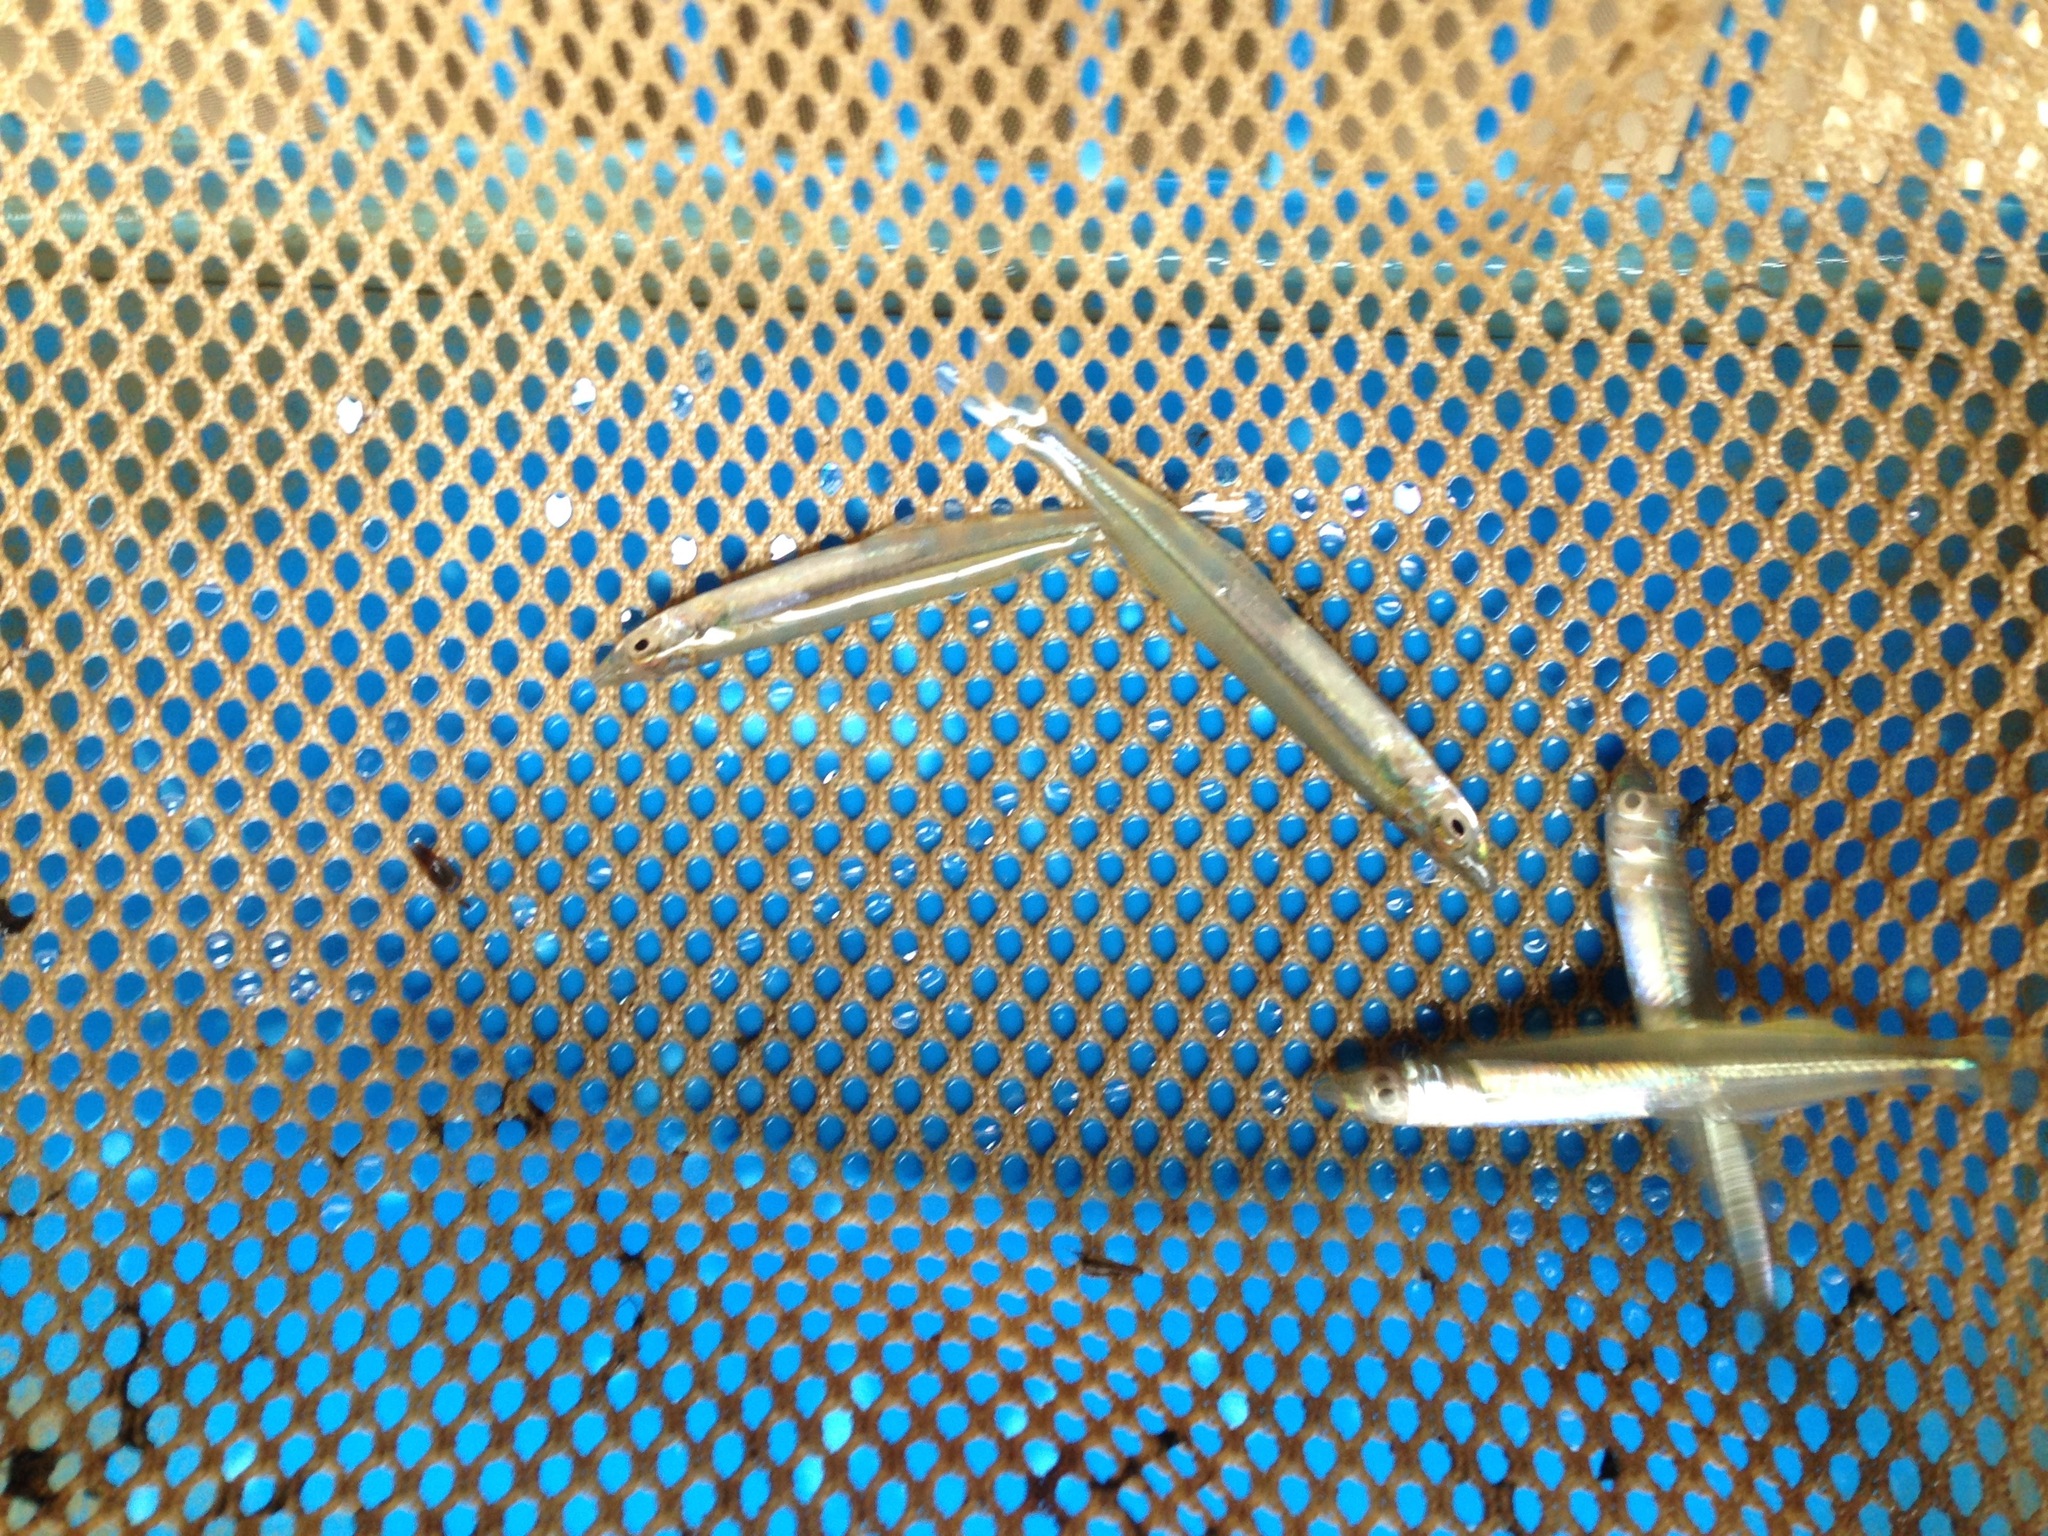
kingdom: Animalia
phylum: Chordata
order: Atheriniformes
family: Atherinopsidae
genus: Labidesthes
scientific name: Labidesthes sicculus
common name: Brook silverside
